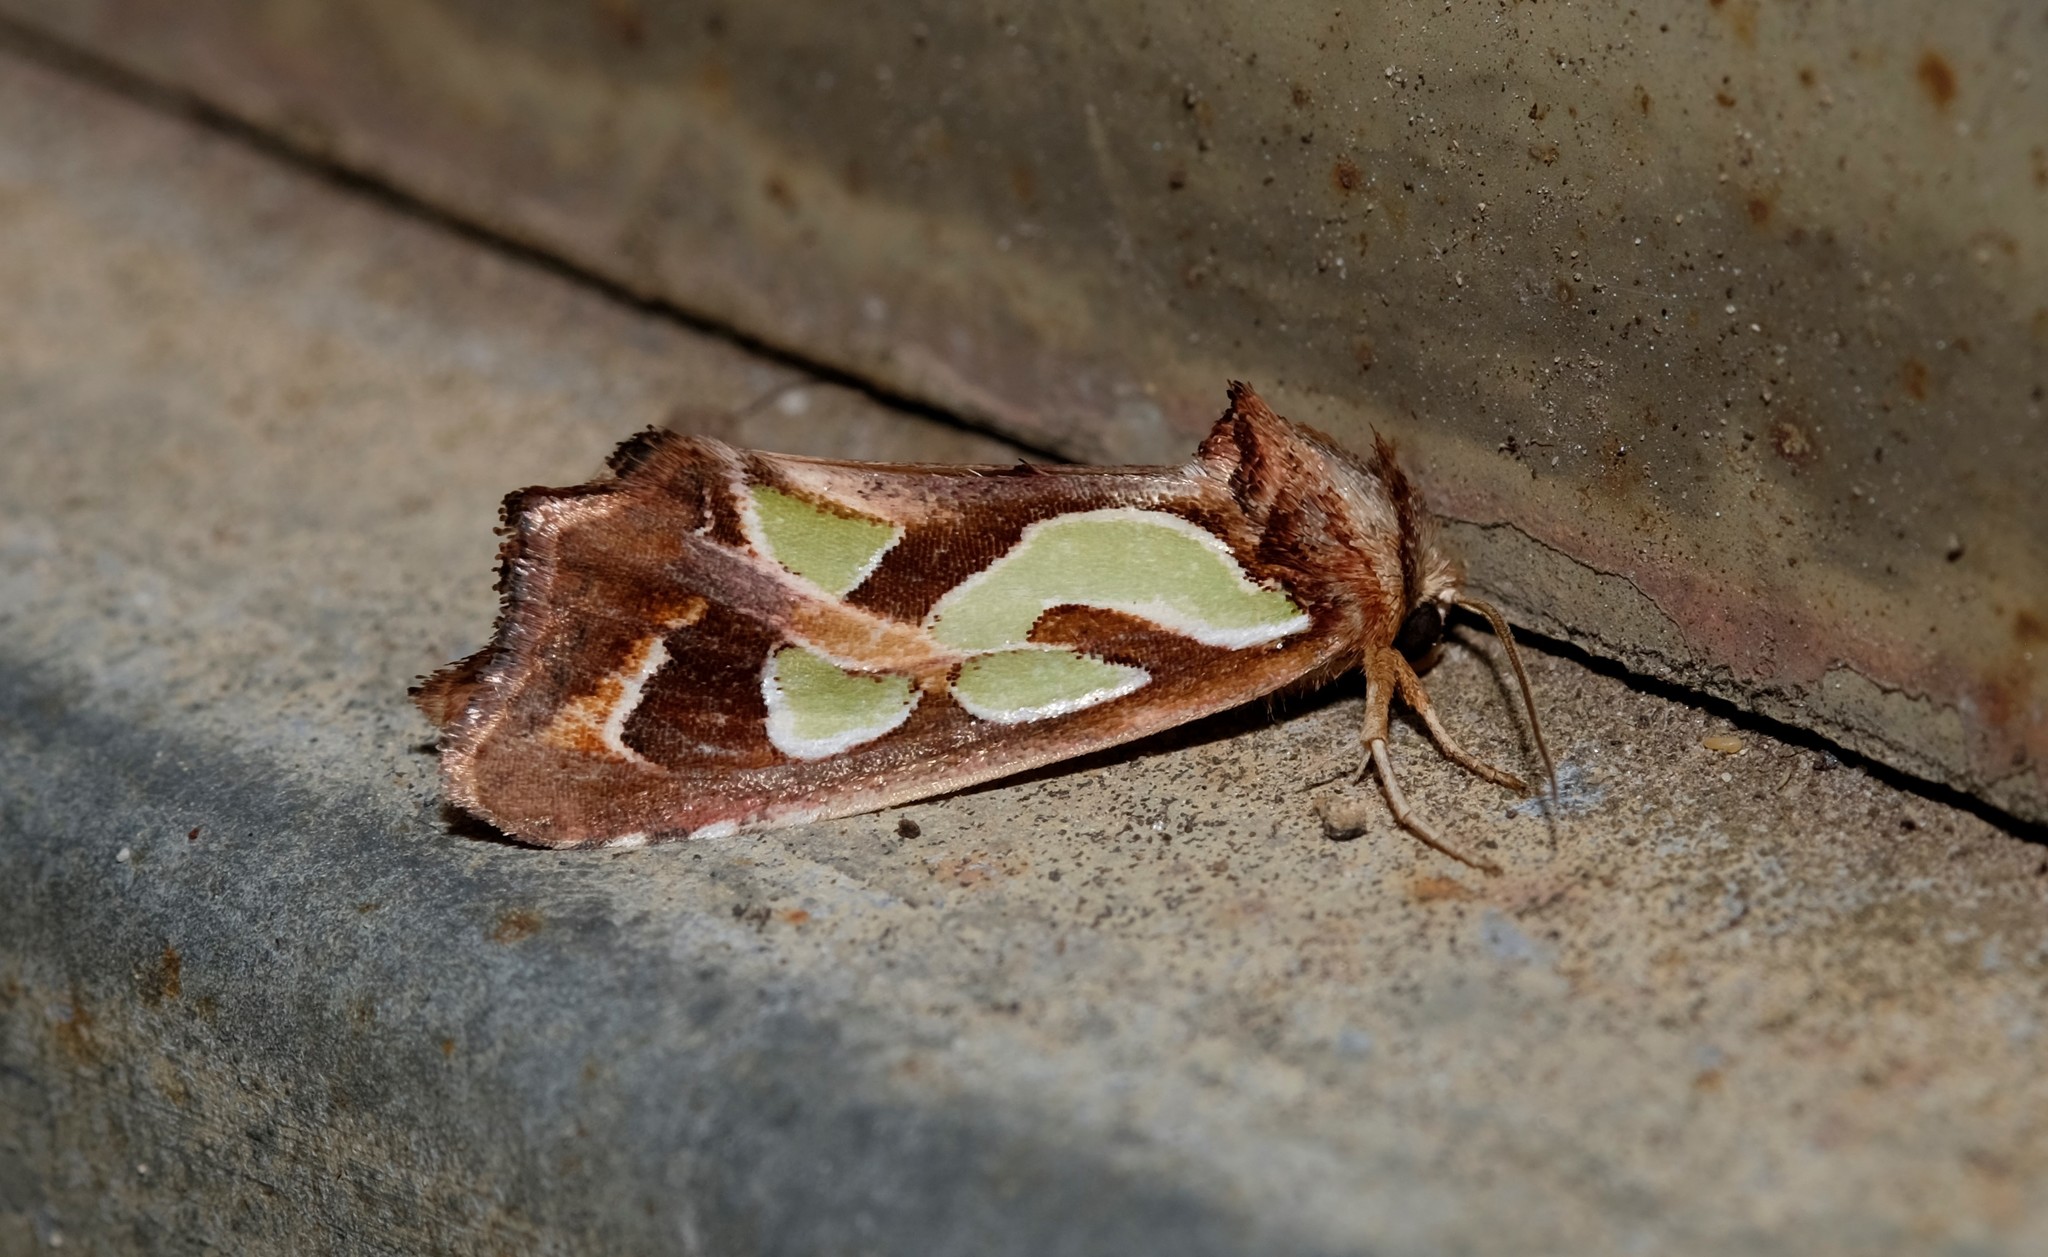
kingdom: Animalia
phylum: Arthropoda
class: Insecta
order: Lepidoptera
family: Noctuidae
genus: Cosmodes
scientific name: Cosmodes elegans
